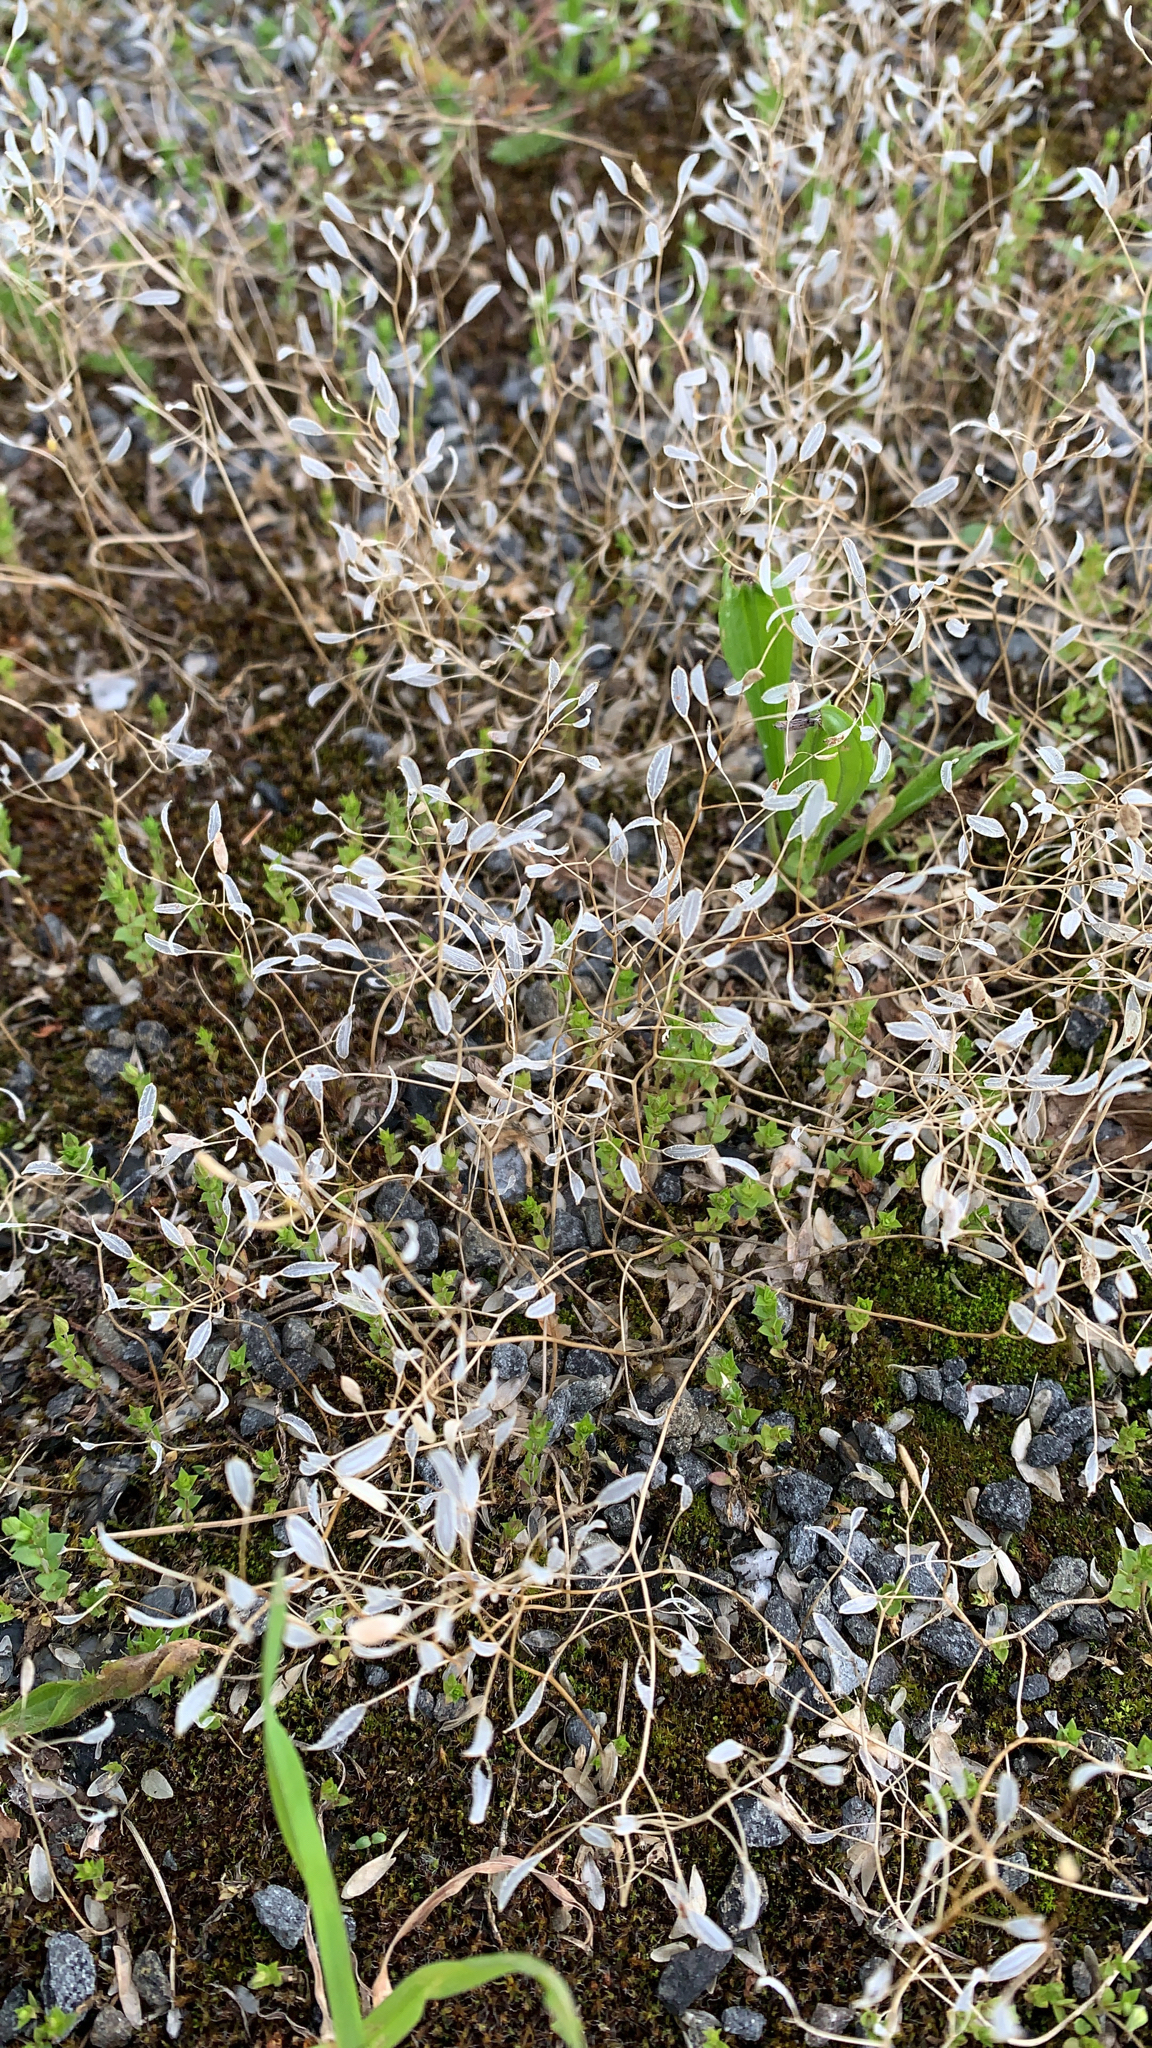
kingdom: Plantae
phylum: Tracheophyta
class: Magnoliopsida
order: Brassicales
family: Brassicaceae
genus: Draba
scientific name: Draba verna
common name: Spring draba
